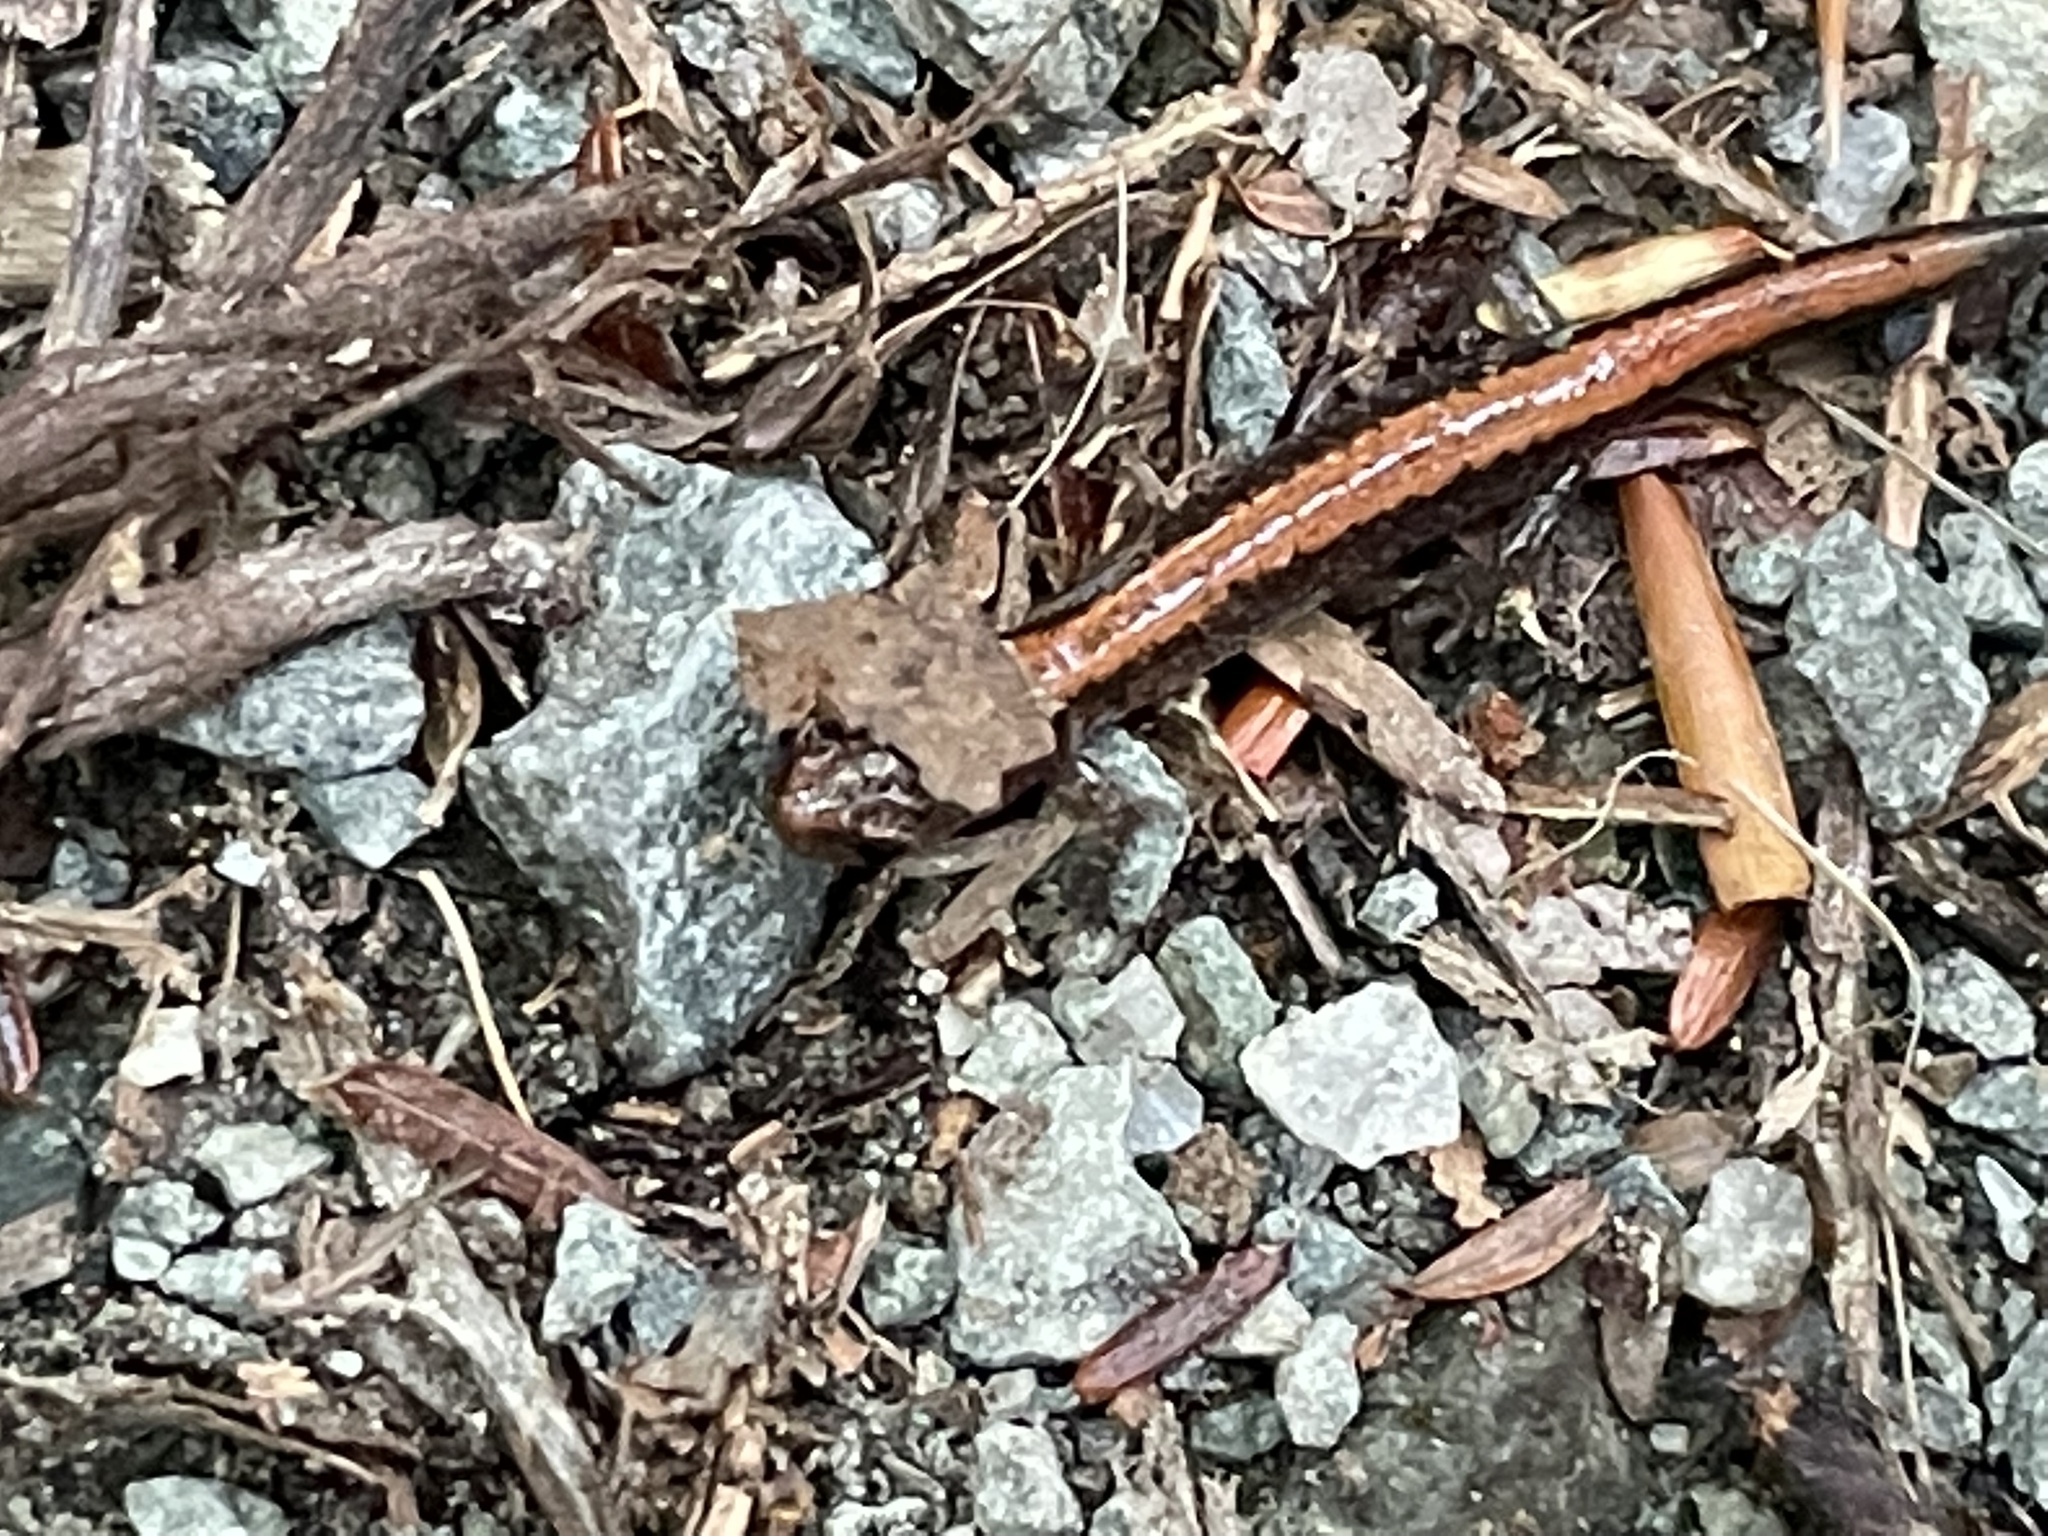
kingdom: Animalia
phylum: Chordata
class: Amphibia
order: Caudata
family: Plethodontidae
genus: Plethodon
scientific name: Plethodon cinereus
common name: Redback salamander
